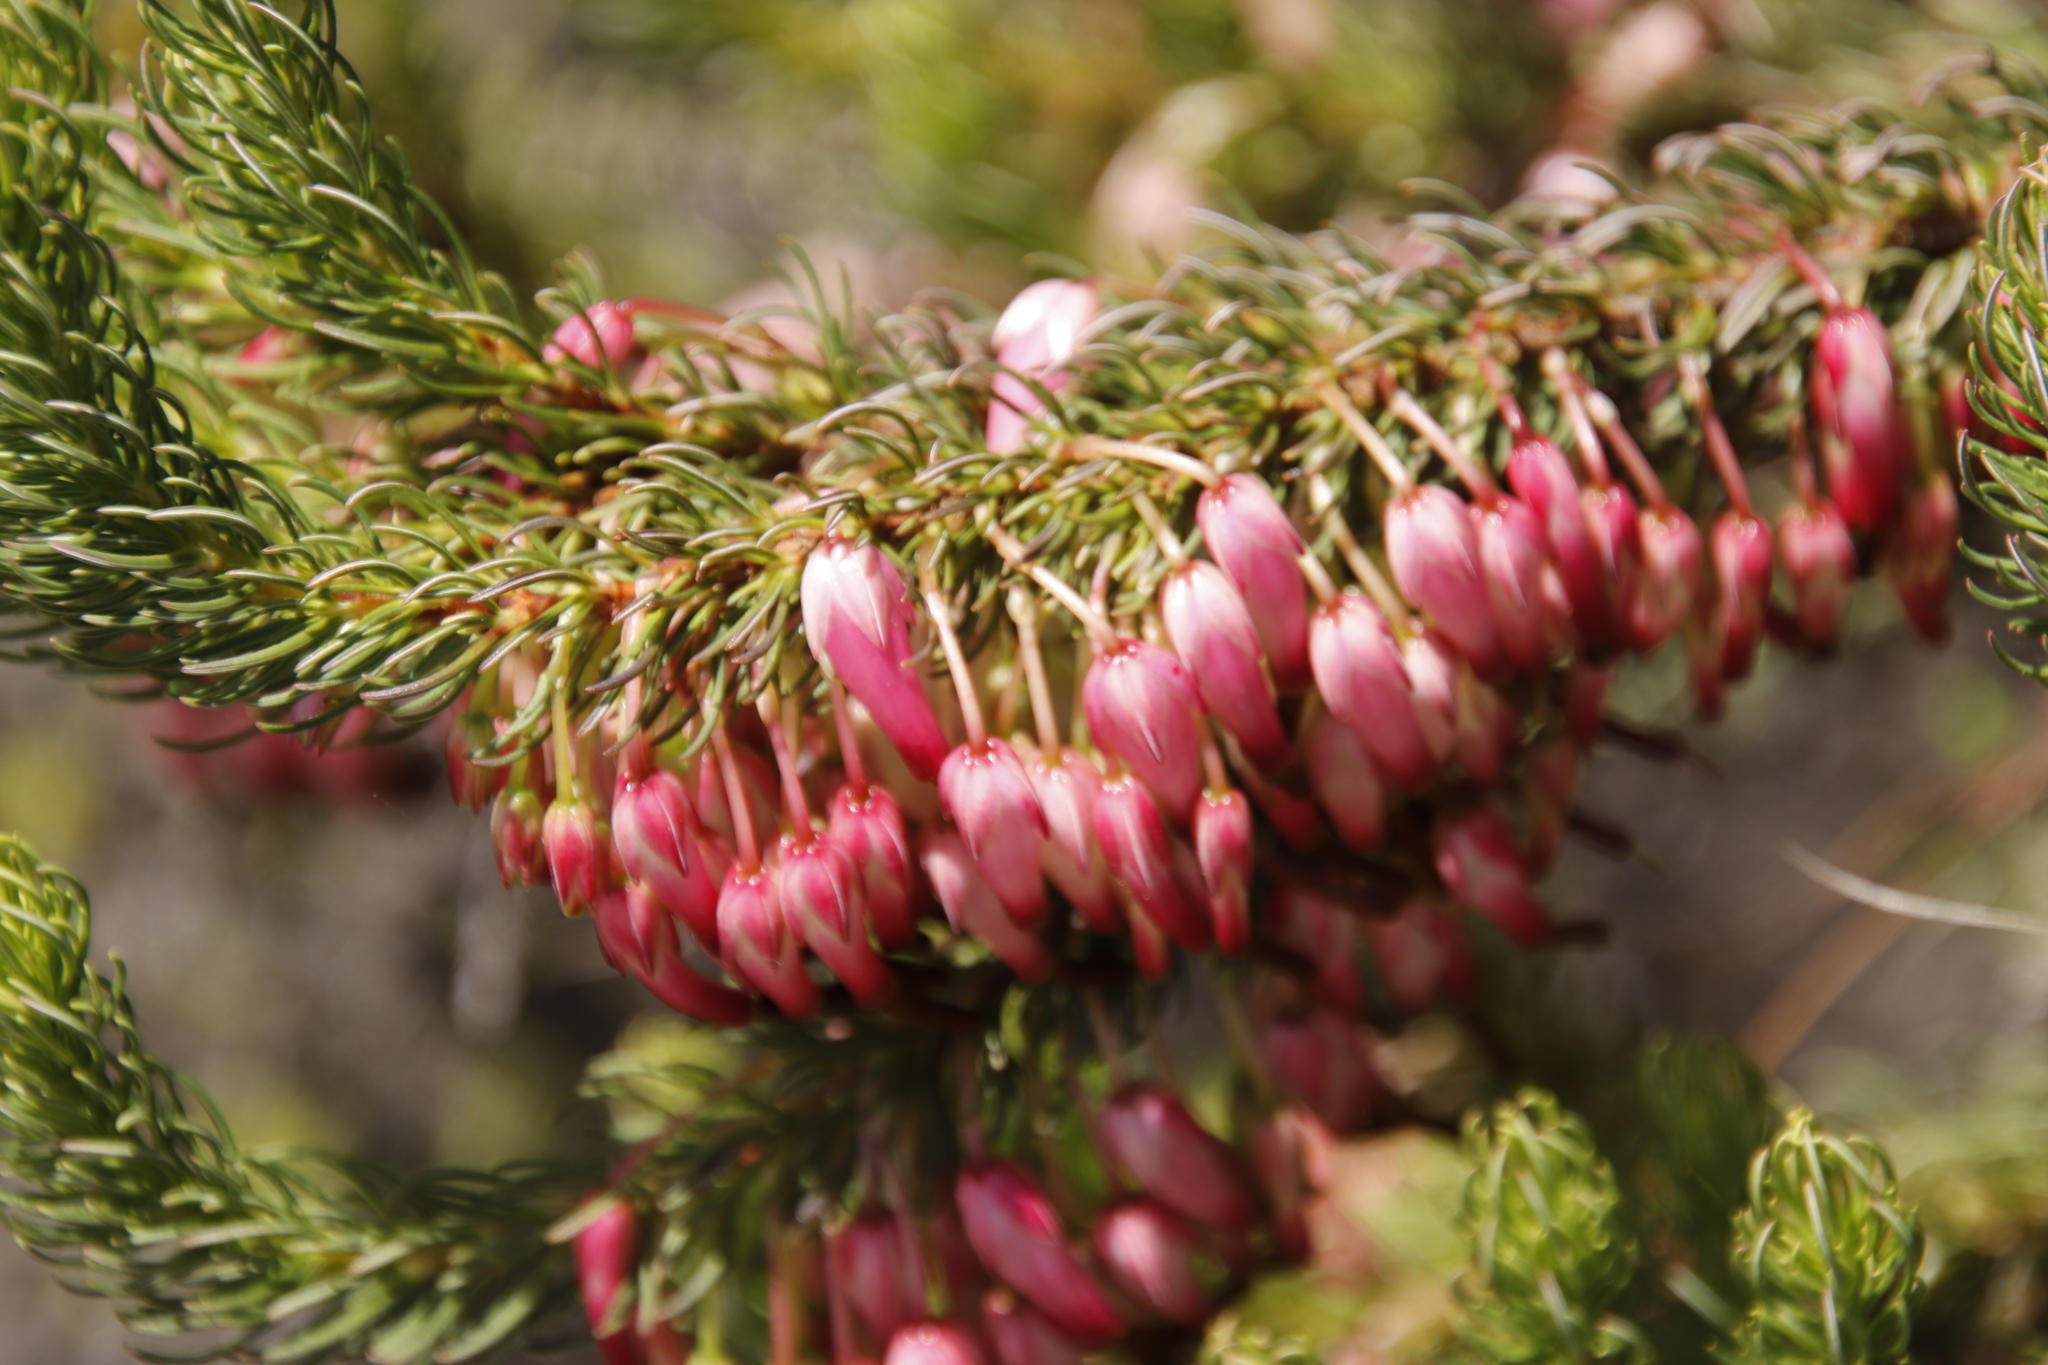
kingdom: Plantae
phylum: Tracheophyta
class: Magnoliopsida
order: Ericales
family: Ericaceae
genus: Erica
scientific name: Erica plukenetii
